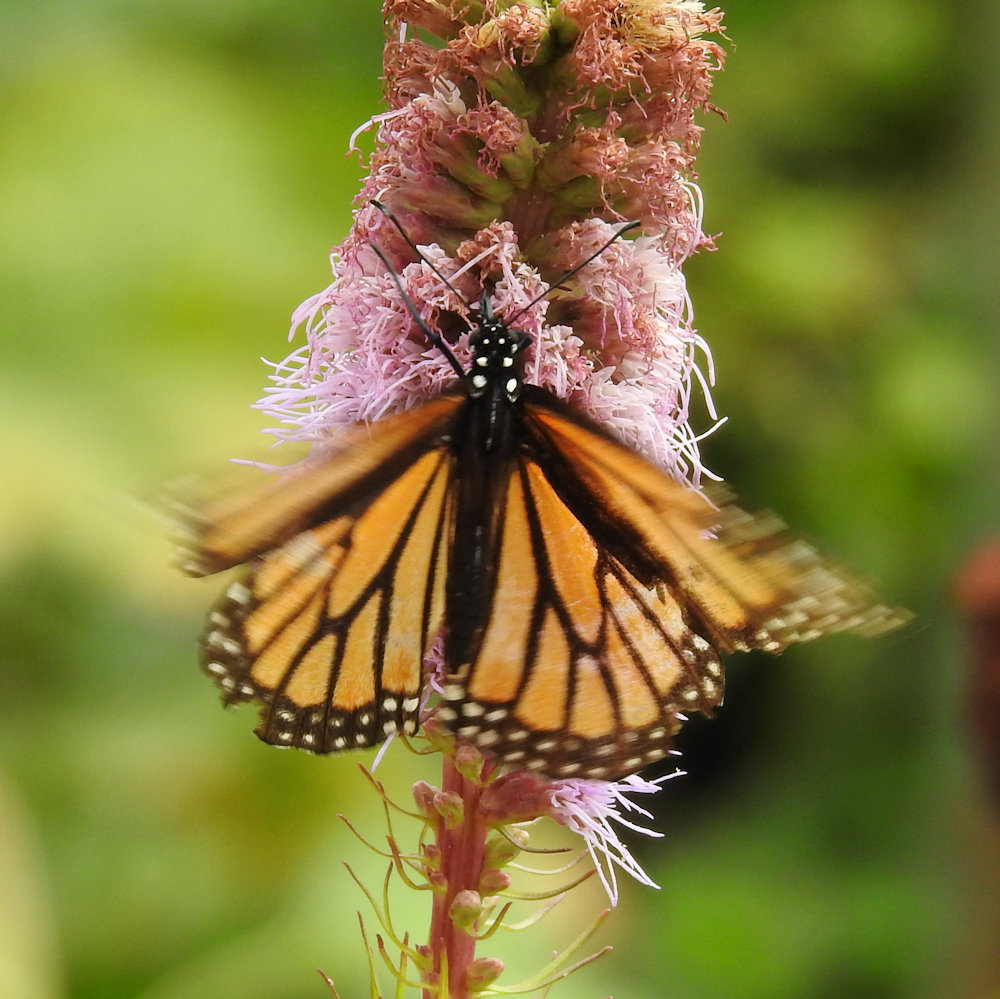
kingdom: Animalia
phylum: Arthropoda
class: Insecta
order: Lepidoptera
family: Nymphalidae
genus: Danaus
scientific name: Danaus plexippus
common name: Monarch
